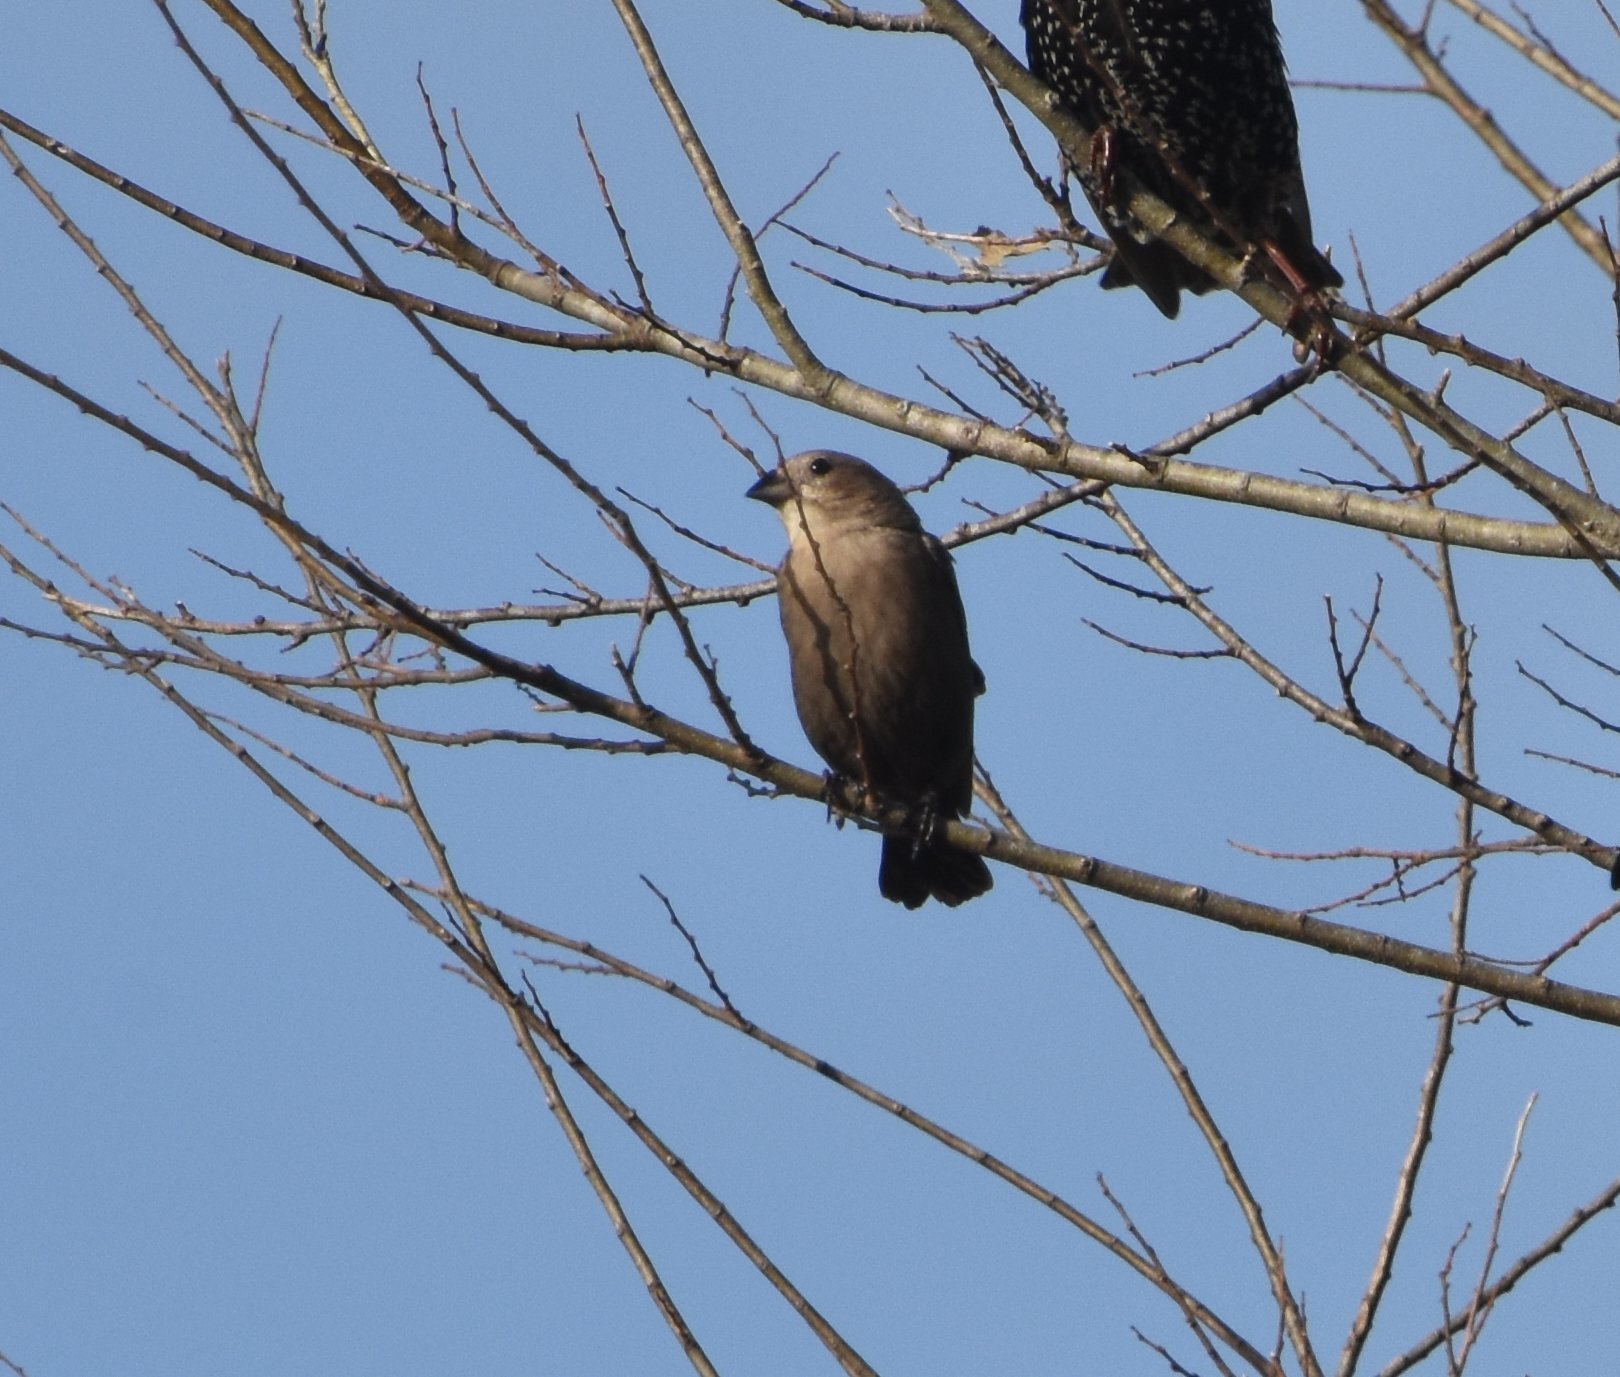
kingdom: Animalia
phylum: Chordata
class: Aves
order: Passeriformes
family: Icteridae
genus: Molothrus
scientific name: Molothrus ater
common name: Brown-headed cowbird
